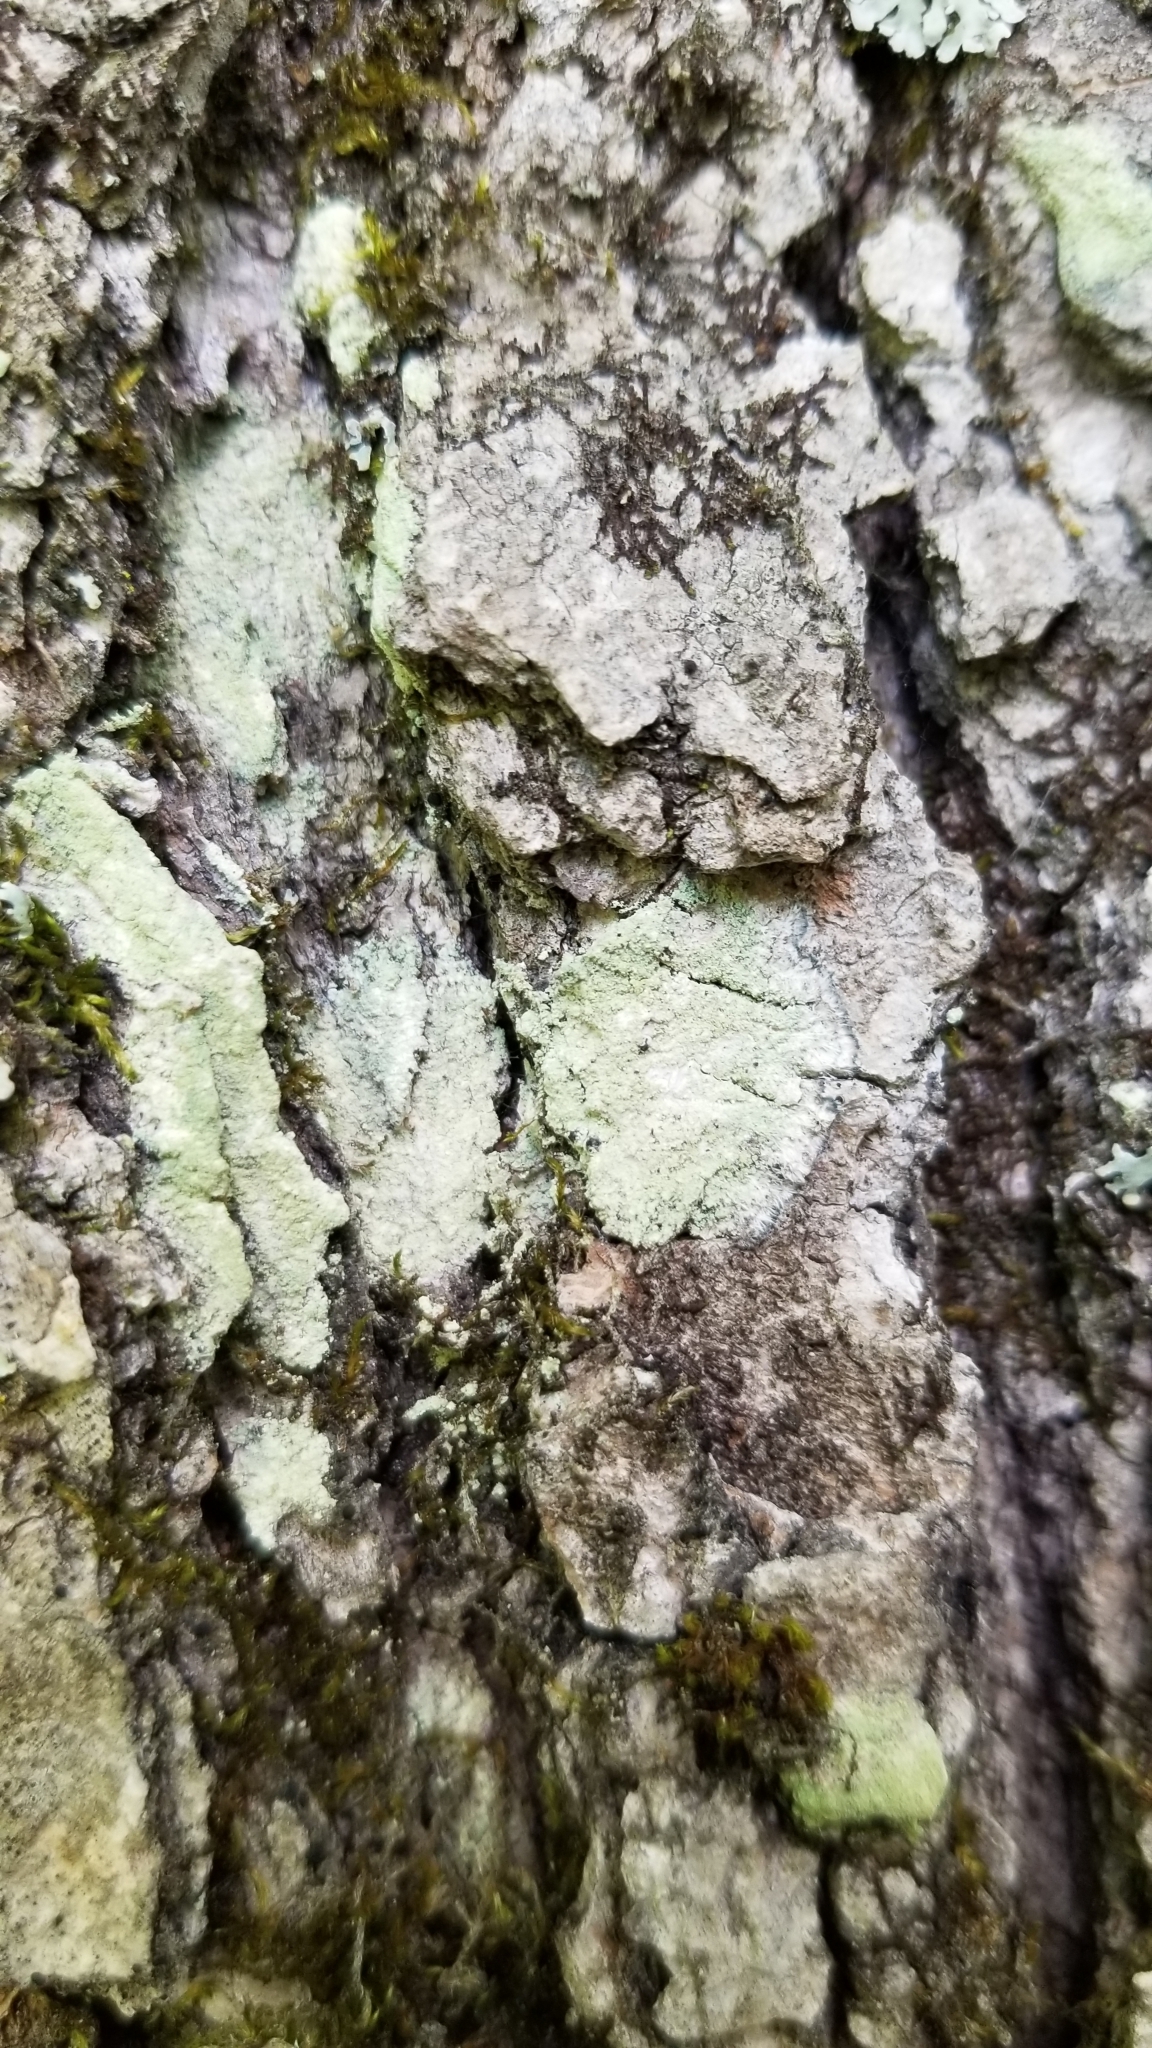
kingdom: Fungi
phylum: Ascomycota
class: Lecanoromycetes
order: Pertusariales
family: Pertusariaceae
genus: Verseghya
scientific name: Verseghya thysanophora
